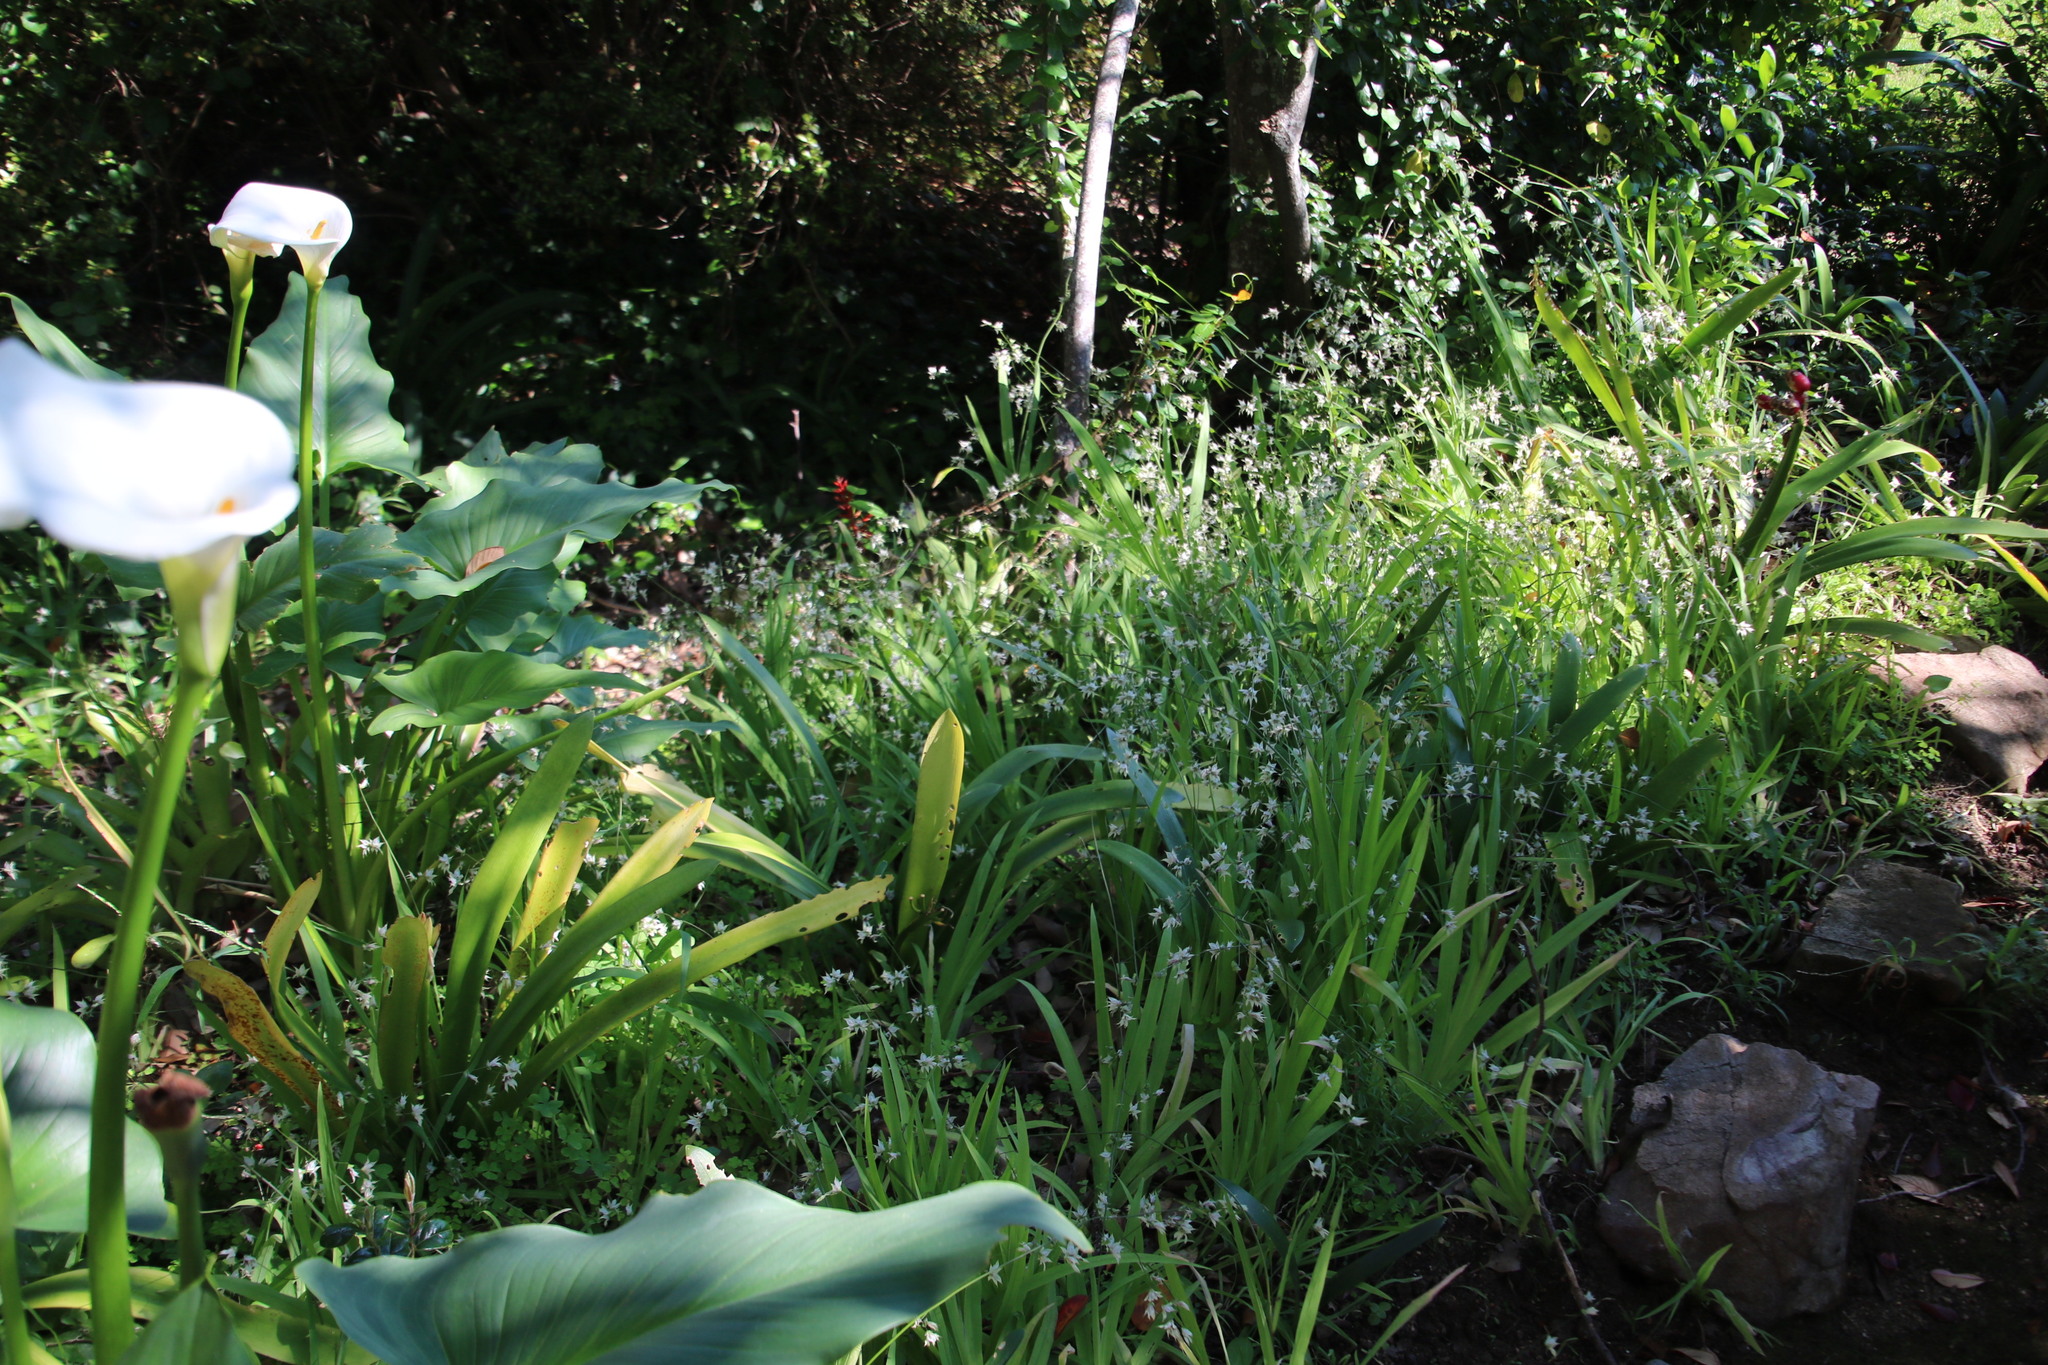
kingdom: Plantae
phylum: Tracheophyta
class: Liliopsida
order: Asparagales
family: Iridaceae
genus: Melasphaerula
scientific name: Melasphaerula graminea
